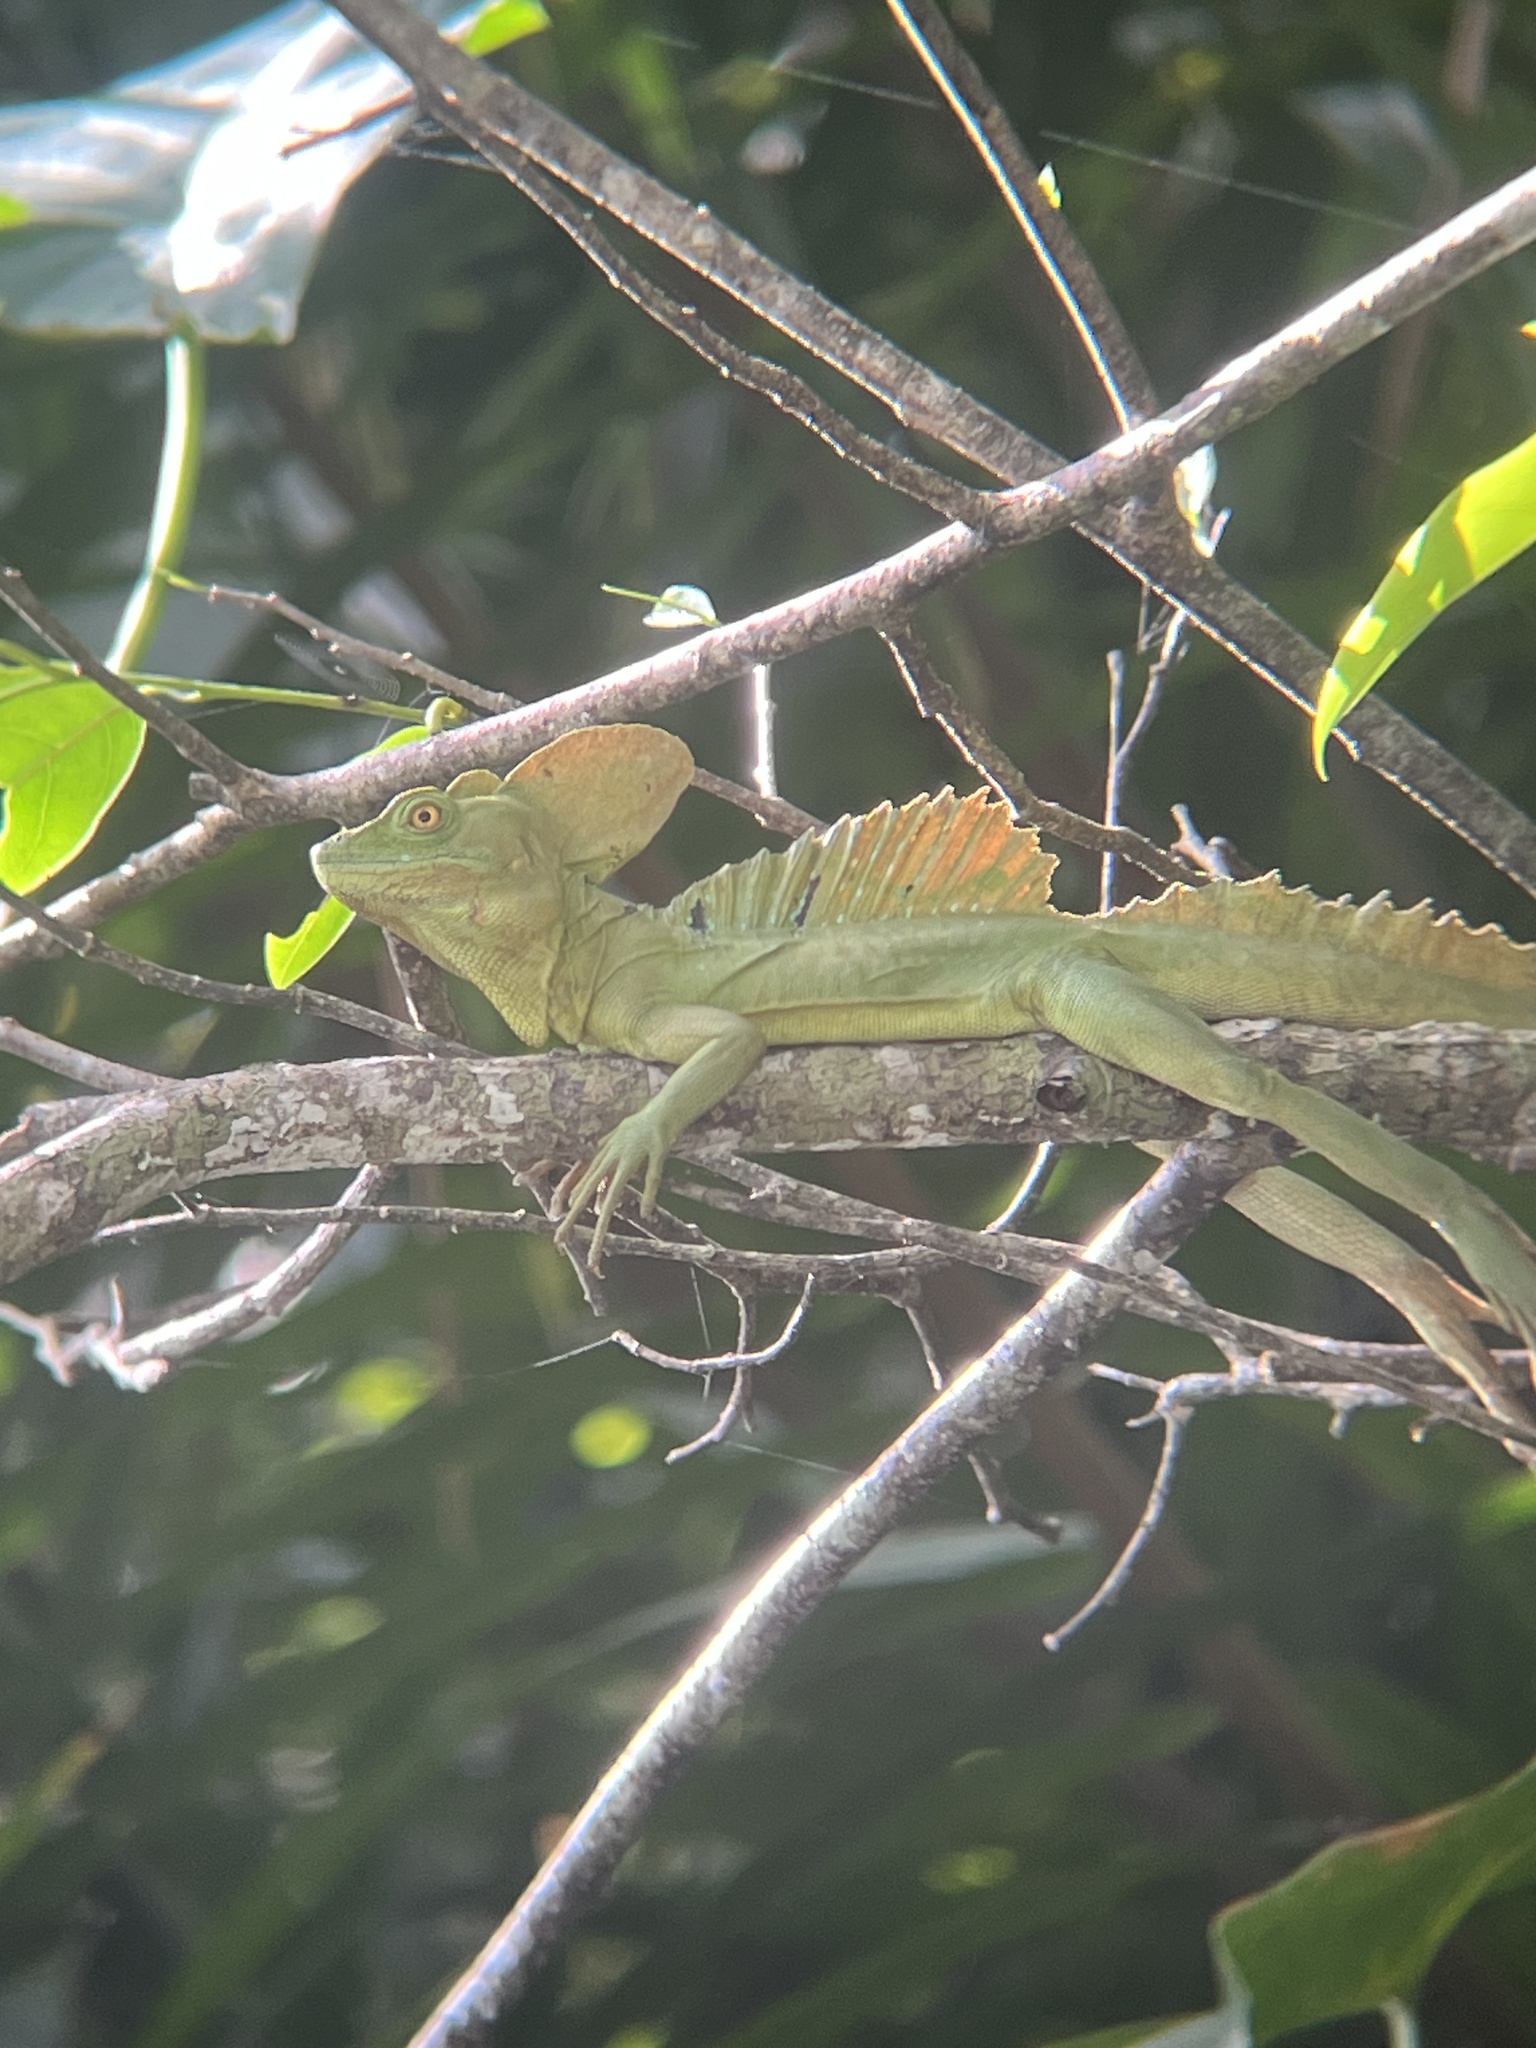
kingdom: Animalia
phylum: Chordata
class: Squamata
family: Corytophanidae
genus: Basiliscus
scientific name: Basiliscus plumifrons
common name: Green basilisk
